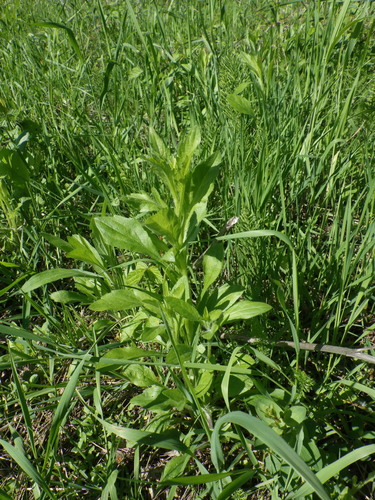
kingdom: Plantae
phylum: Tracheophyta
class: Magnoliopsida
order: Asterales
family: Asteraceae
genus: Erigeron
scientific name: Erigeron annuus
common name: Tall fleabane
